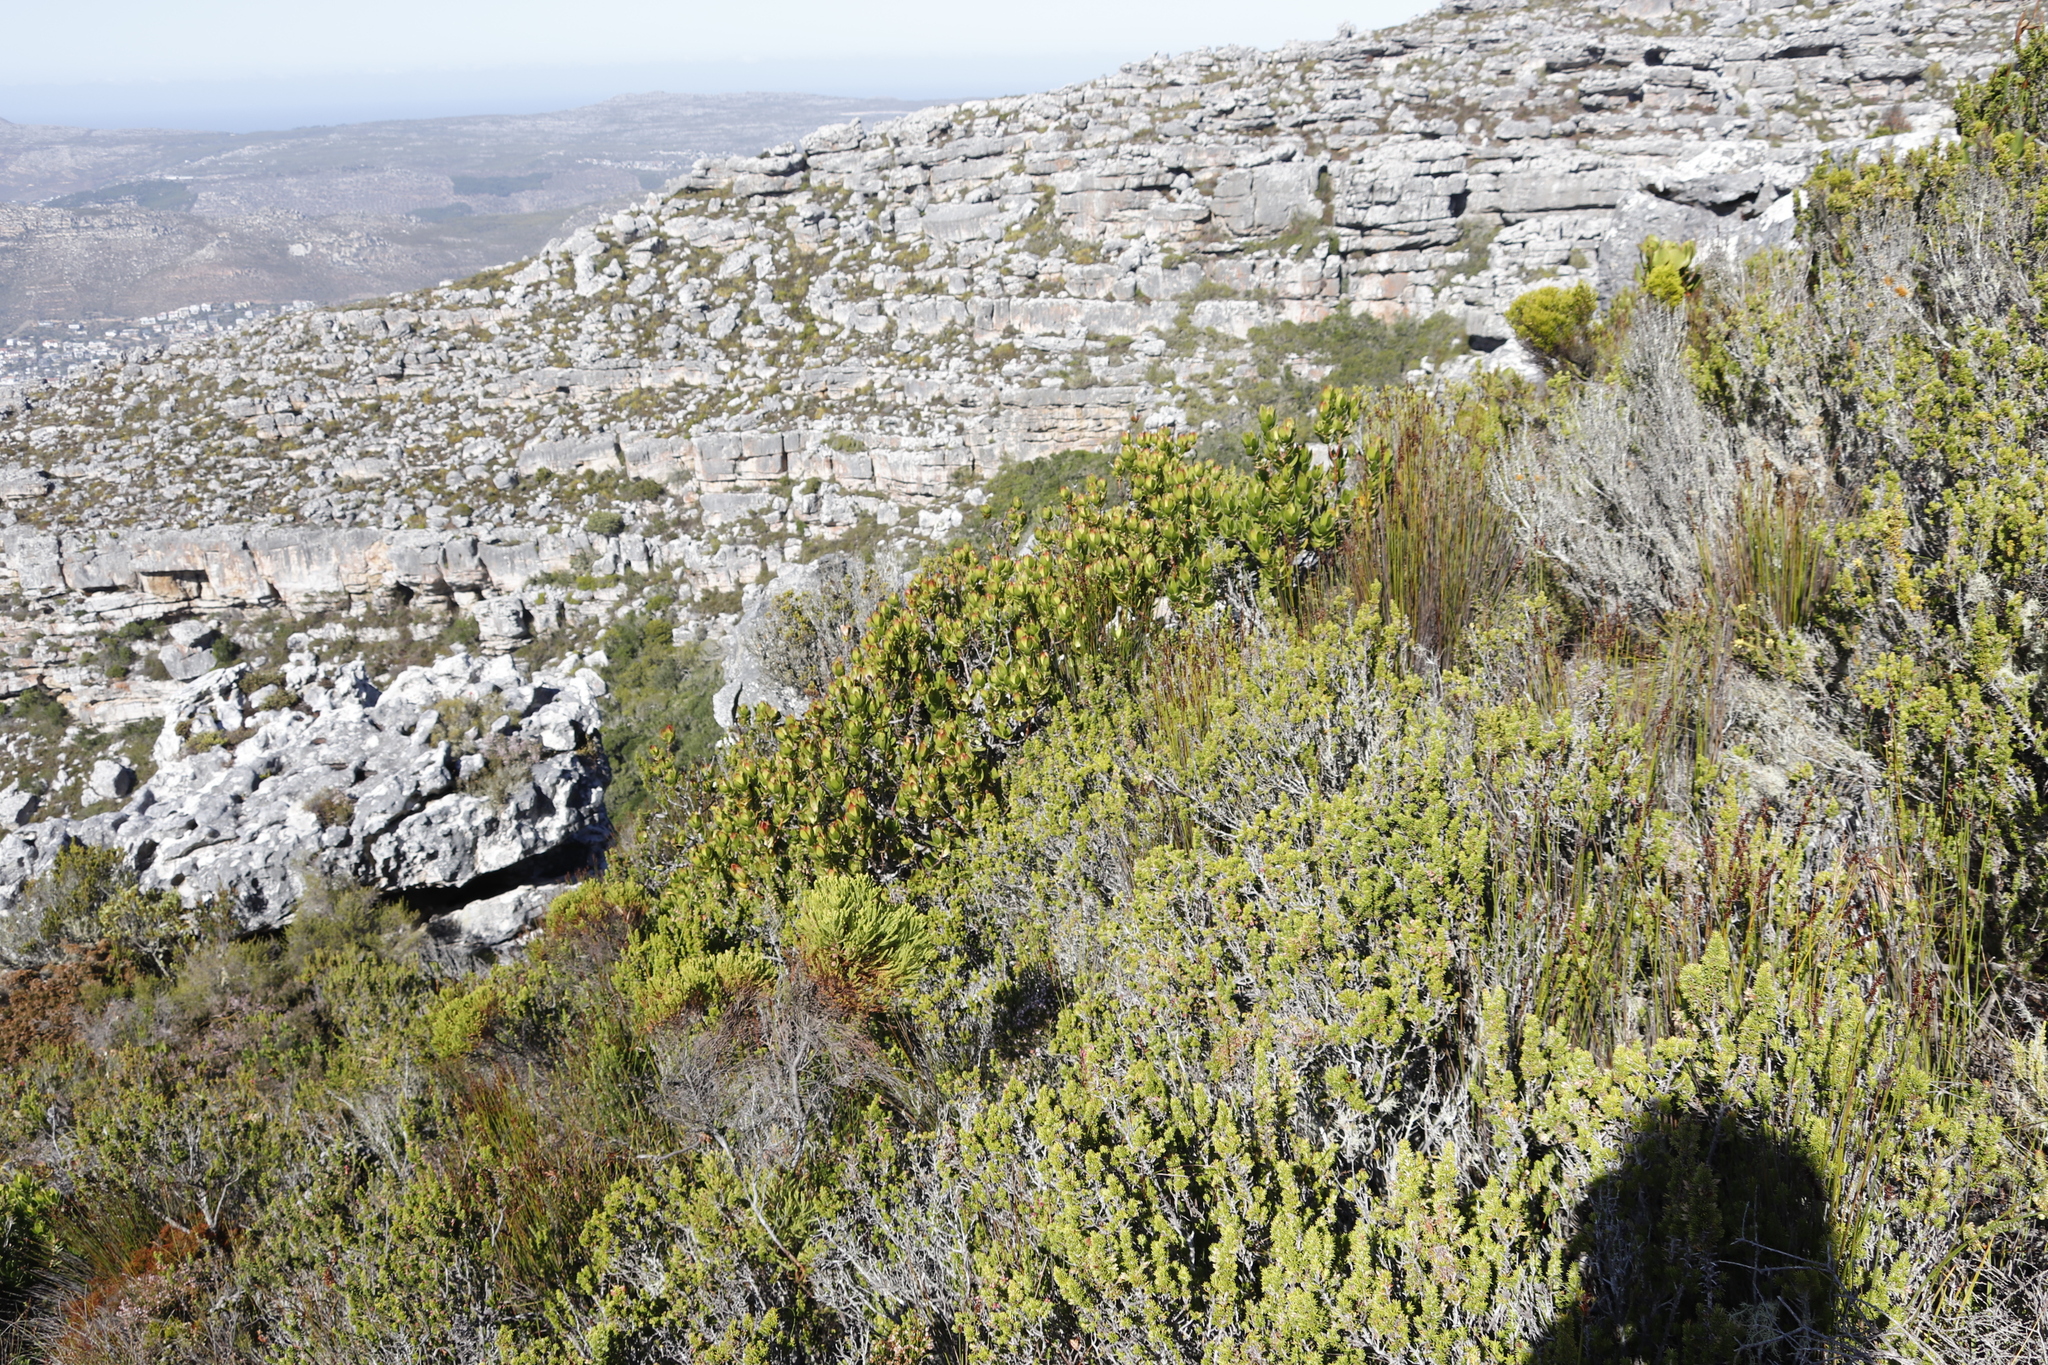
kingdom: Plantae
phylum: Tracheophyta
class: Magnoliopsida
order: Proteales
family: Proteaceae
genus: Leucadendron
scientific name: Leucadendron strobilinum
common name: Mountain rose
